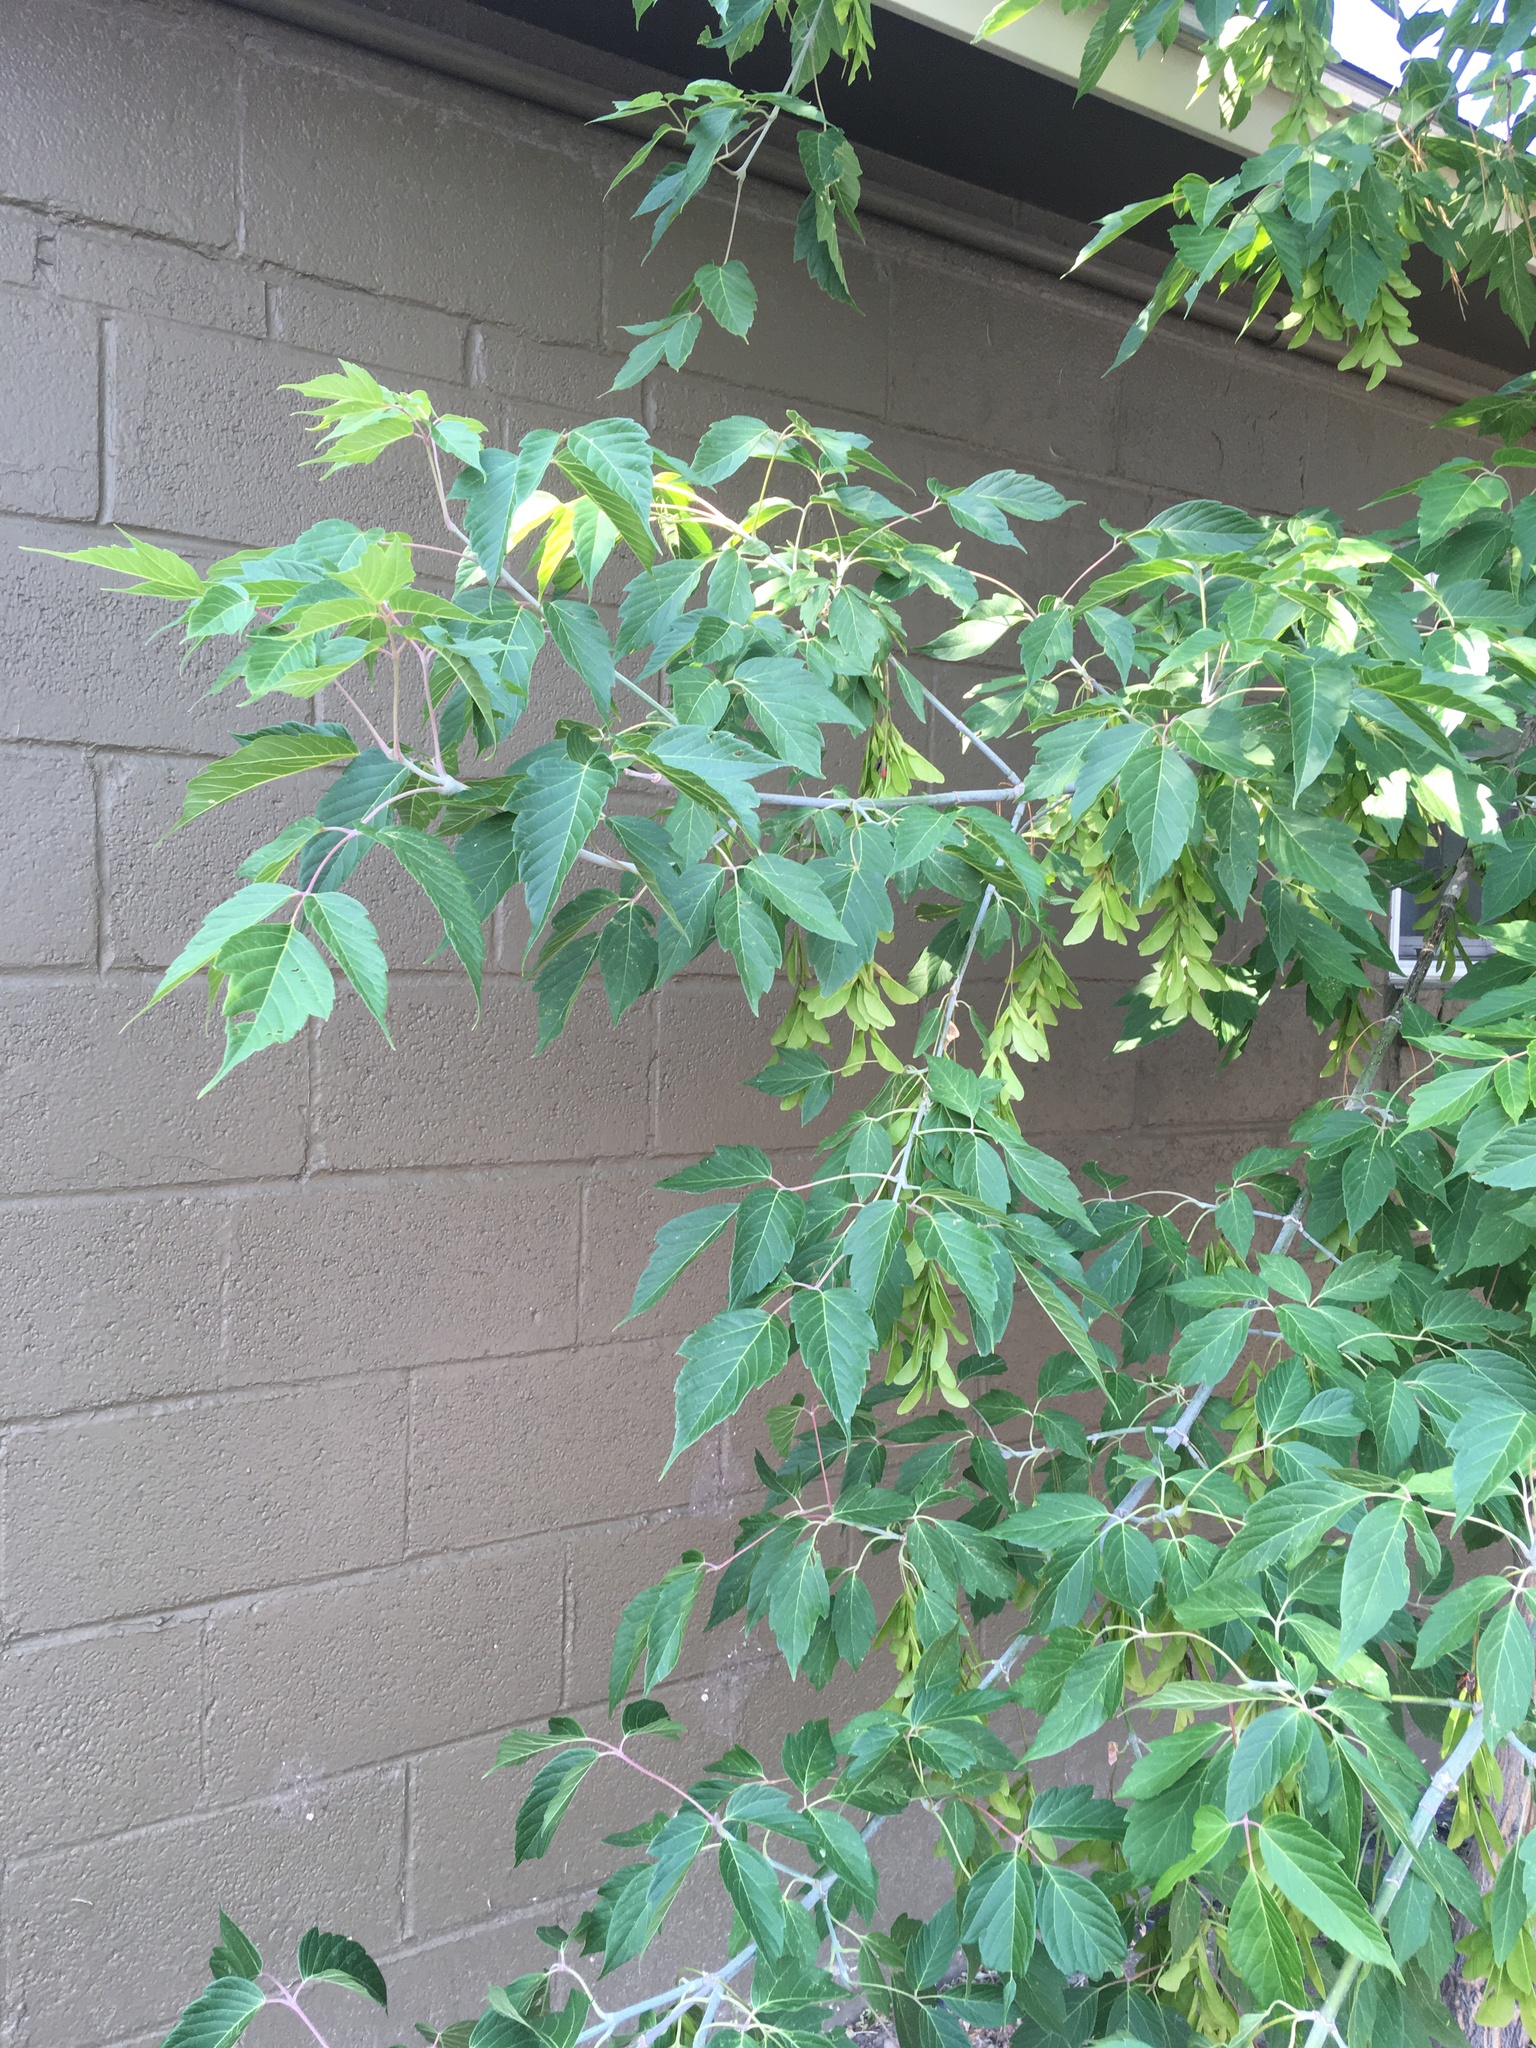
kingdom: Plantae
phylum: Tracheophyta
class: Magnoliopsida
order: Sapindales
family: Sapindaceae
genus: Acer
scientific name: Acer negundo
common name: Ashleaf maple
